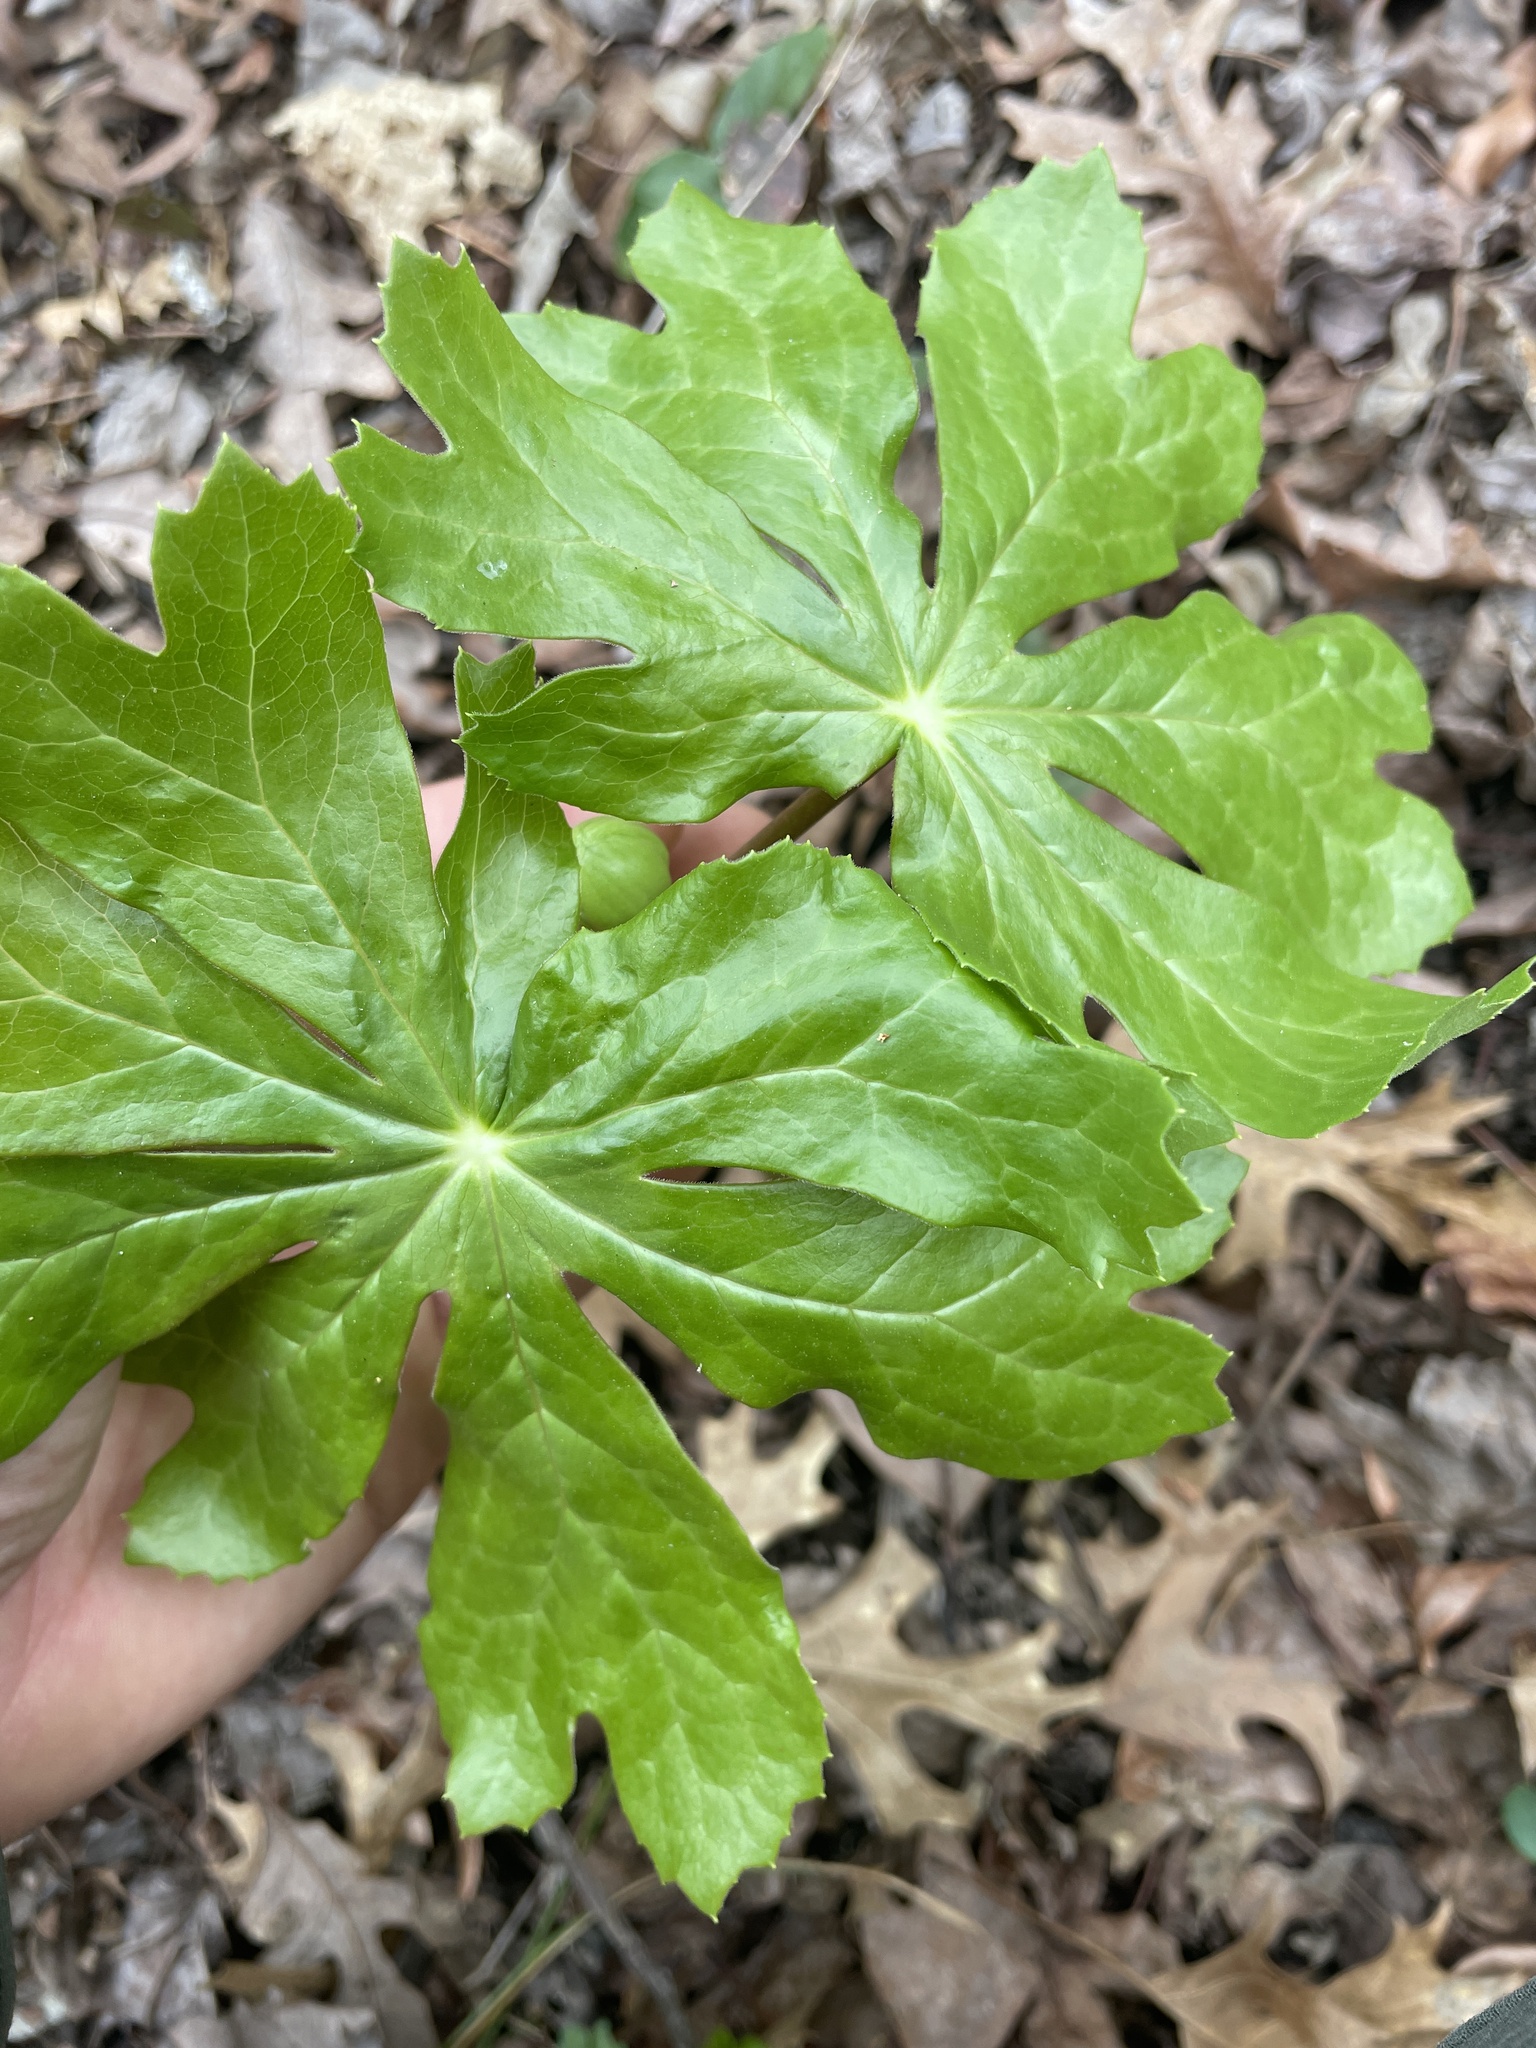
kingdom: Plantae
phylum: Tracheophyta
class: Magnoliopsida
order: Ranunculales
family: Berberidaceae
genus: Podophyllum
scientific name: Podophyllum peltatum
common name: Wild mandrake
